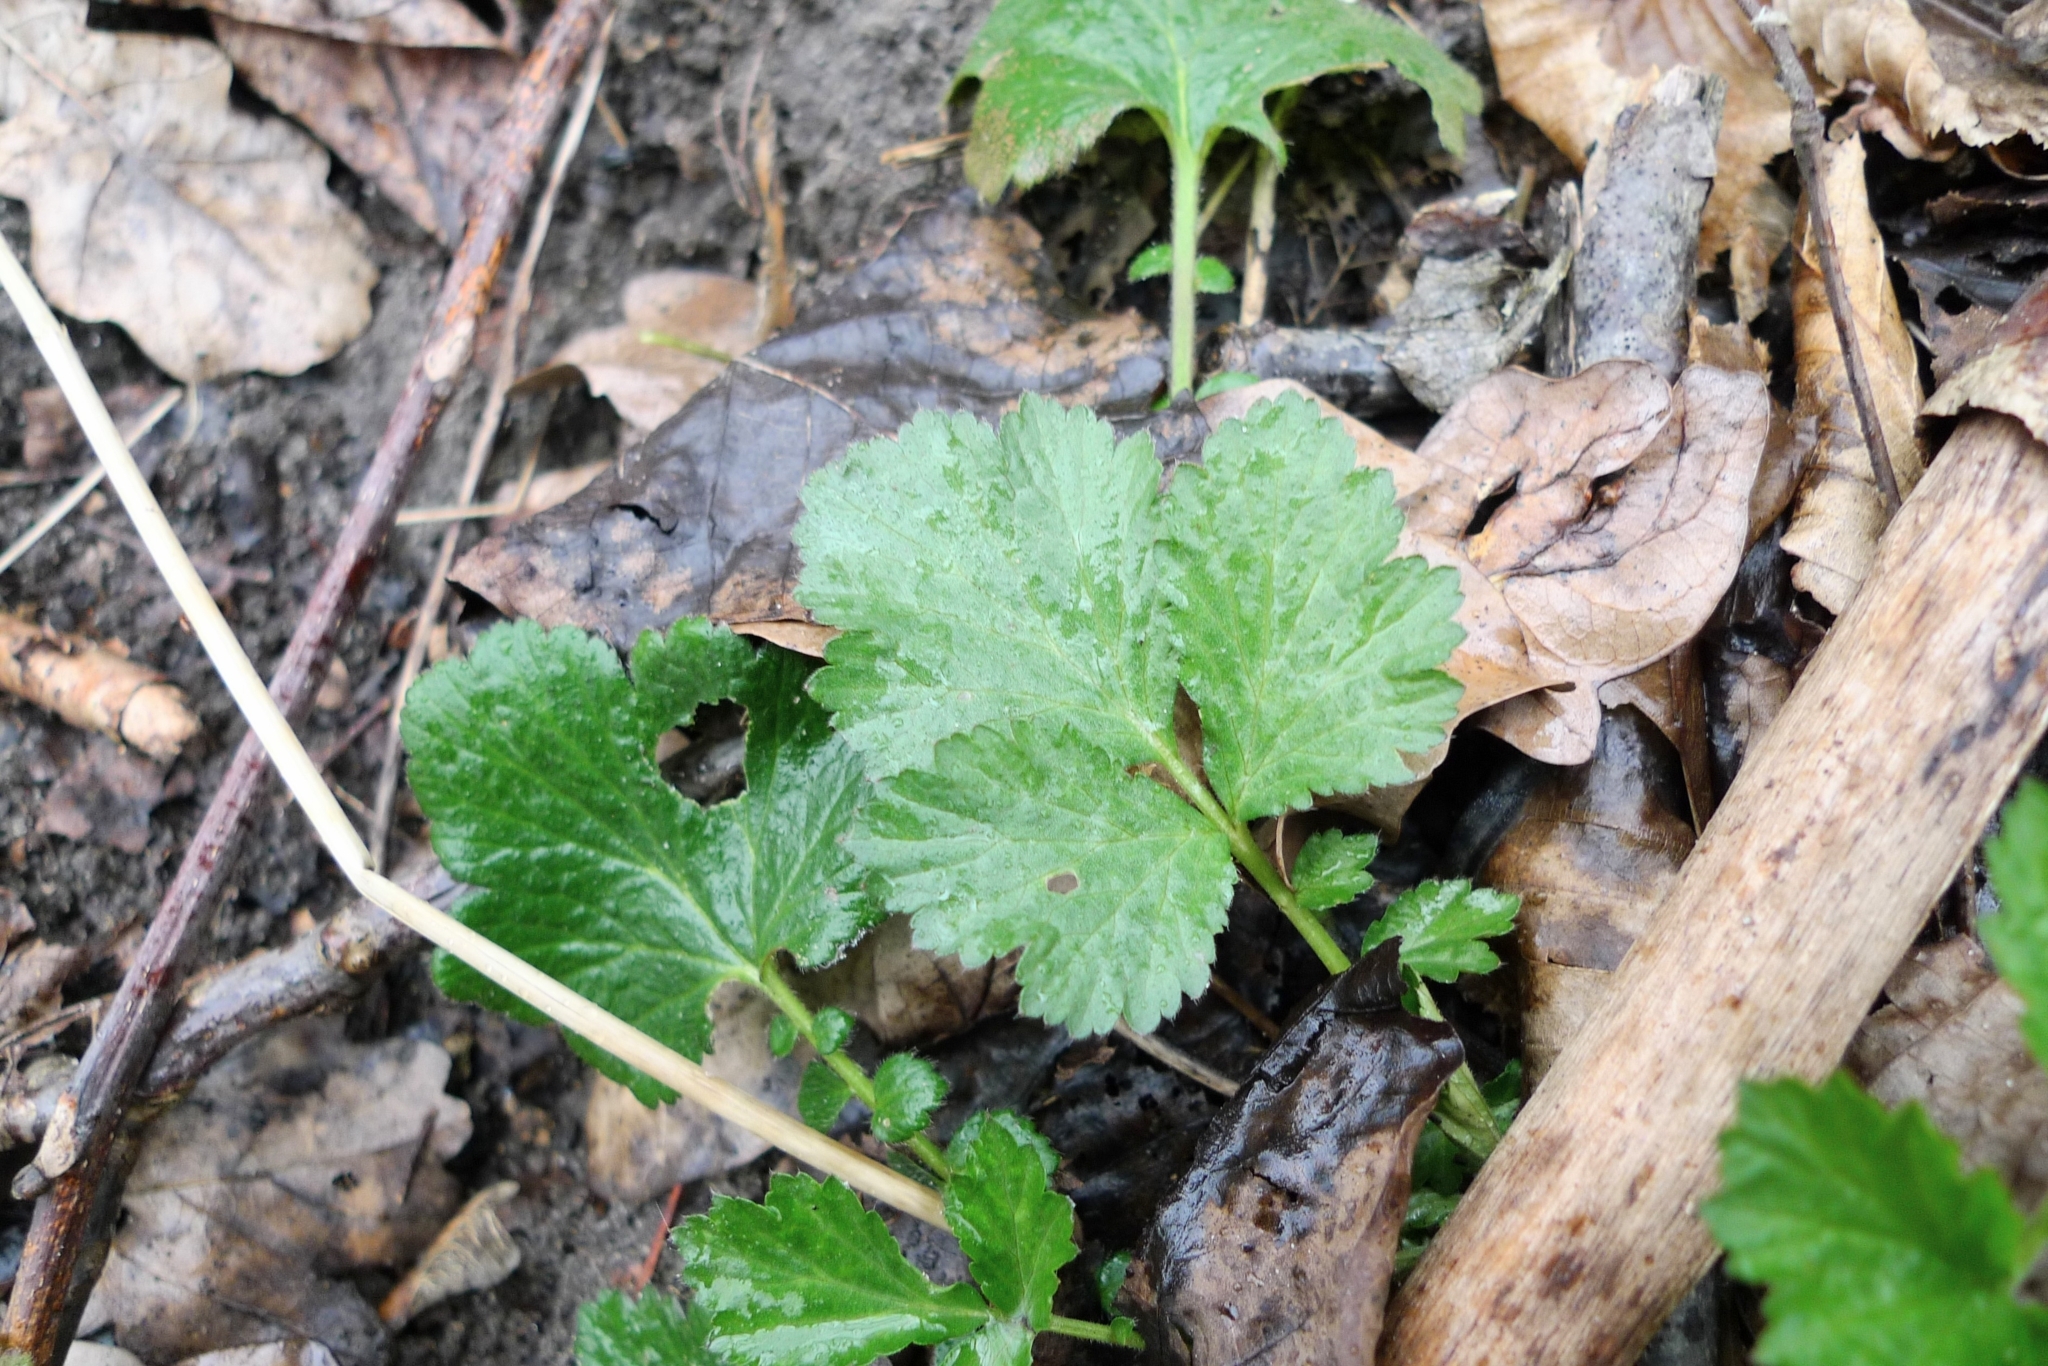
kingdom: Plantae
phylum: Tracheophyta
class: Magnoliopsida
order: Rosales
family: Rosaceae
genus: Geum
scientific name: Geum urbanum
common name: Wood avens
